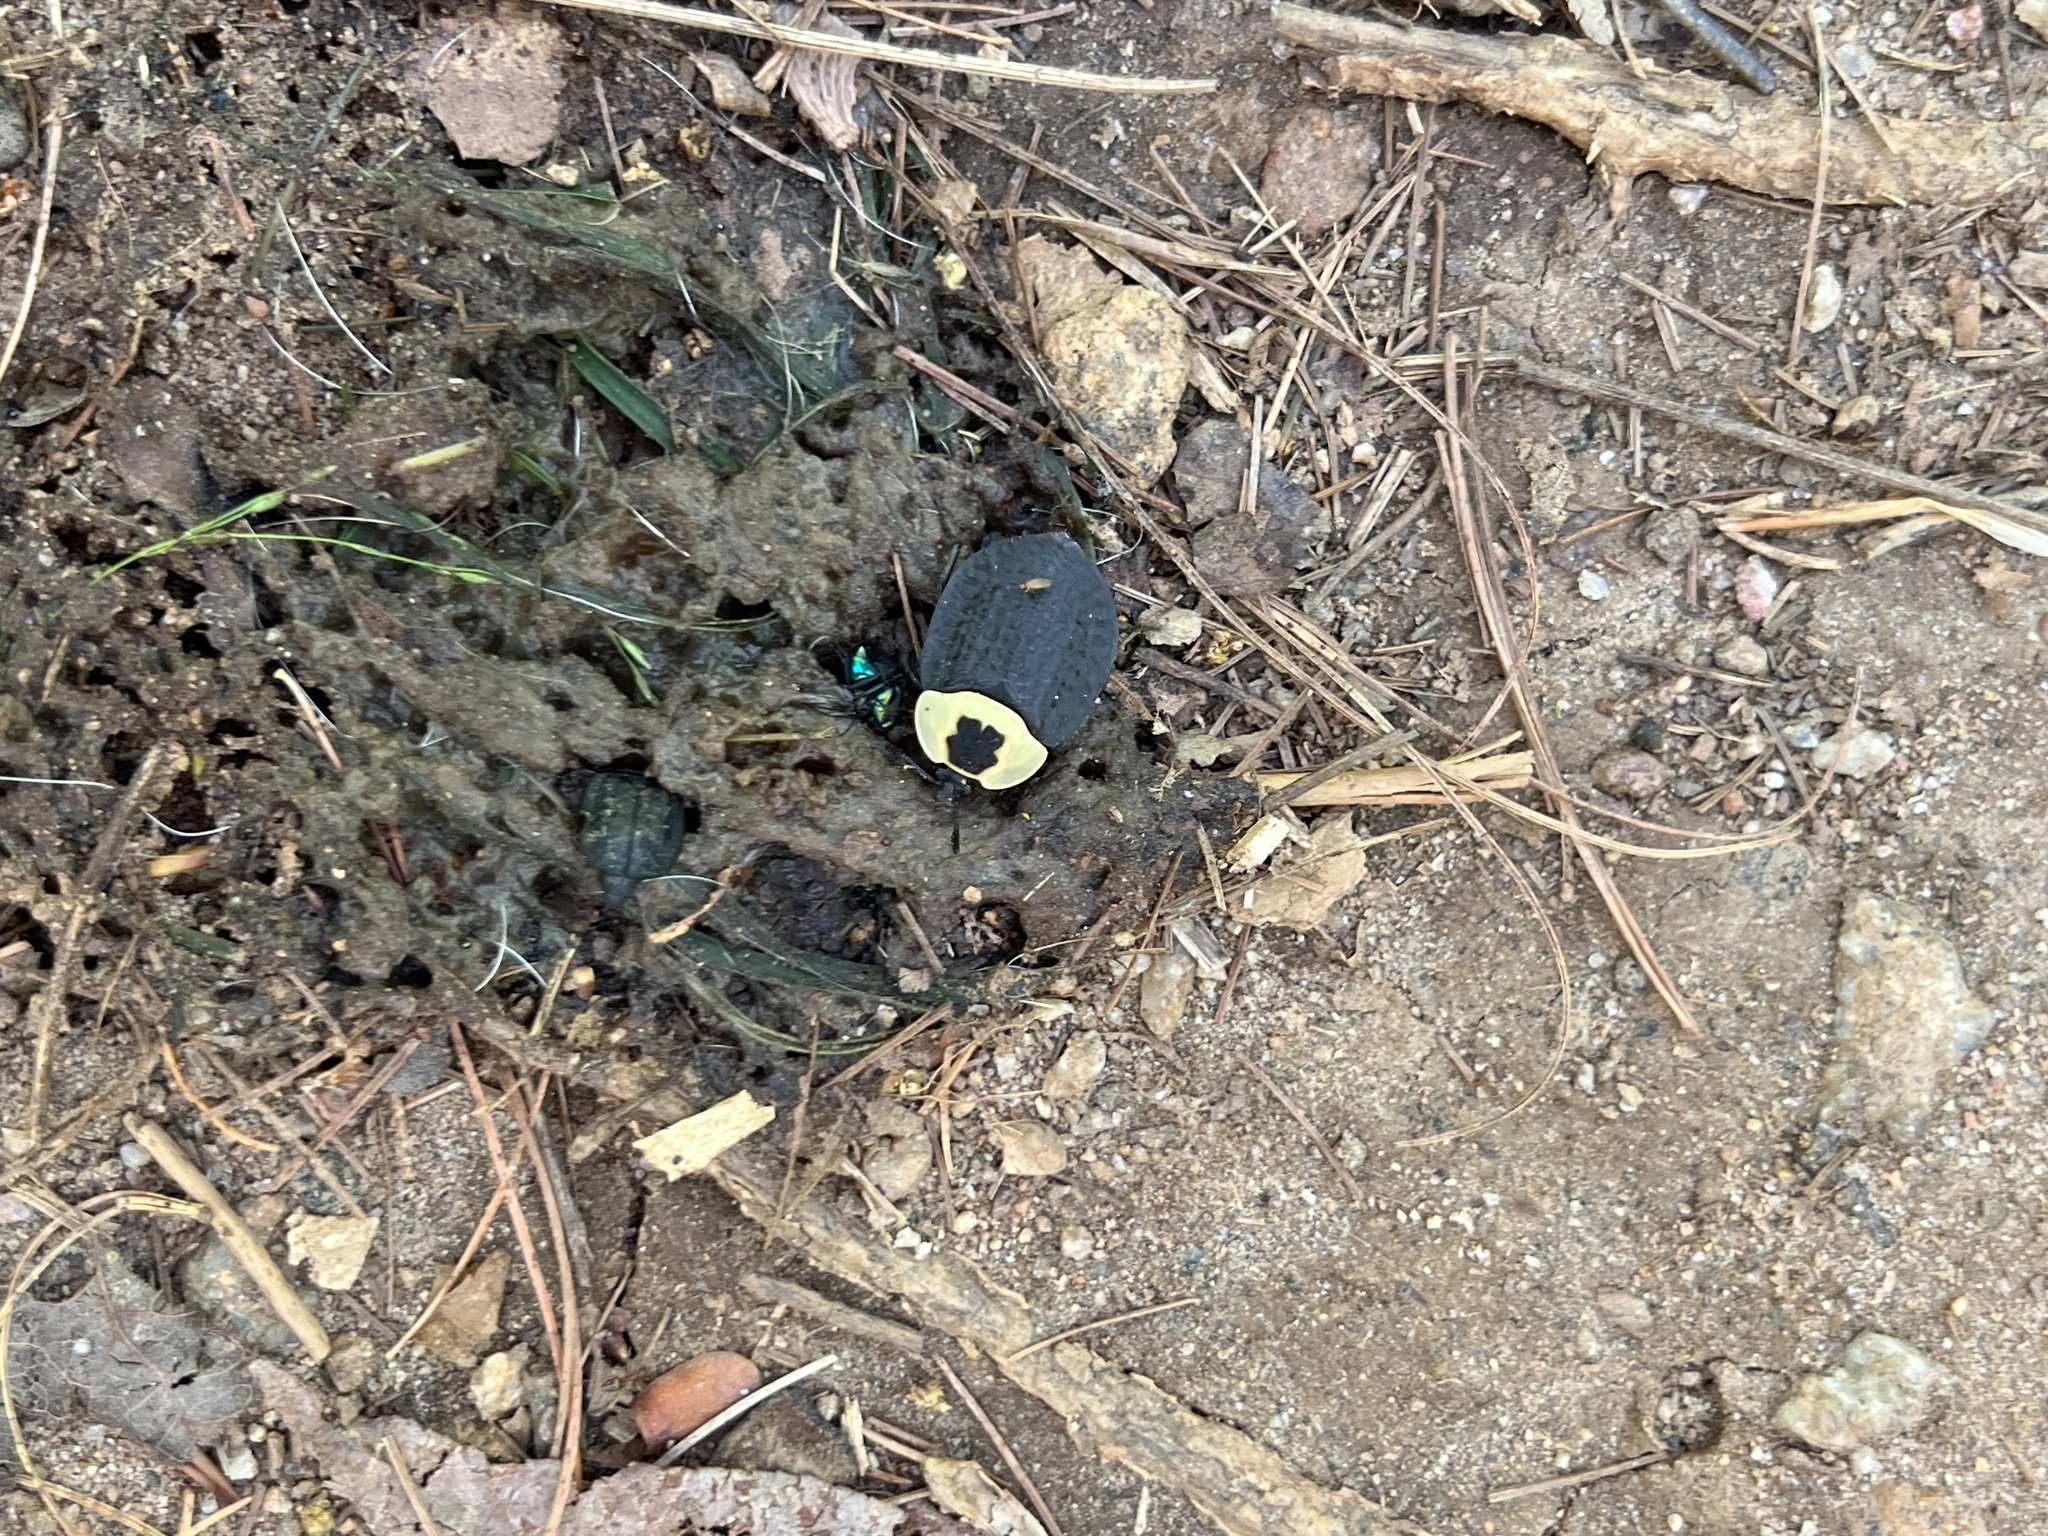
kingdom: Animalia
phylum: Arthropoda
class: Insecta
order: Coleoptera
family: Staphylinidae
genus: Necrophila
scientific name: Necrophila americana
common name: American carrion beetle
